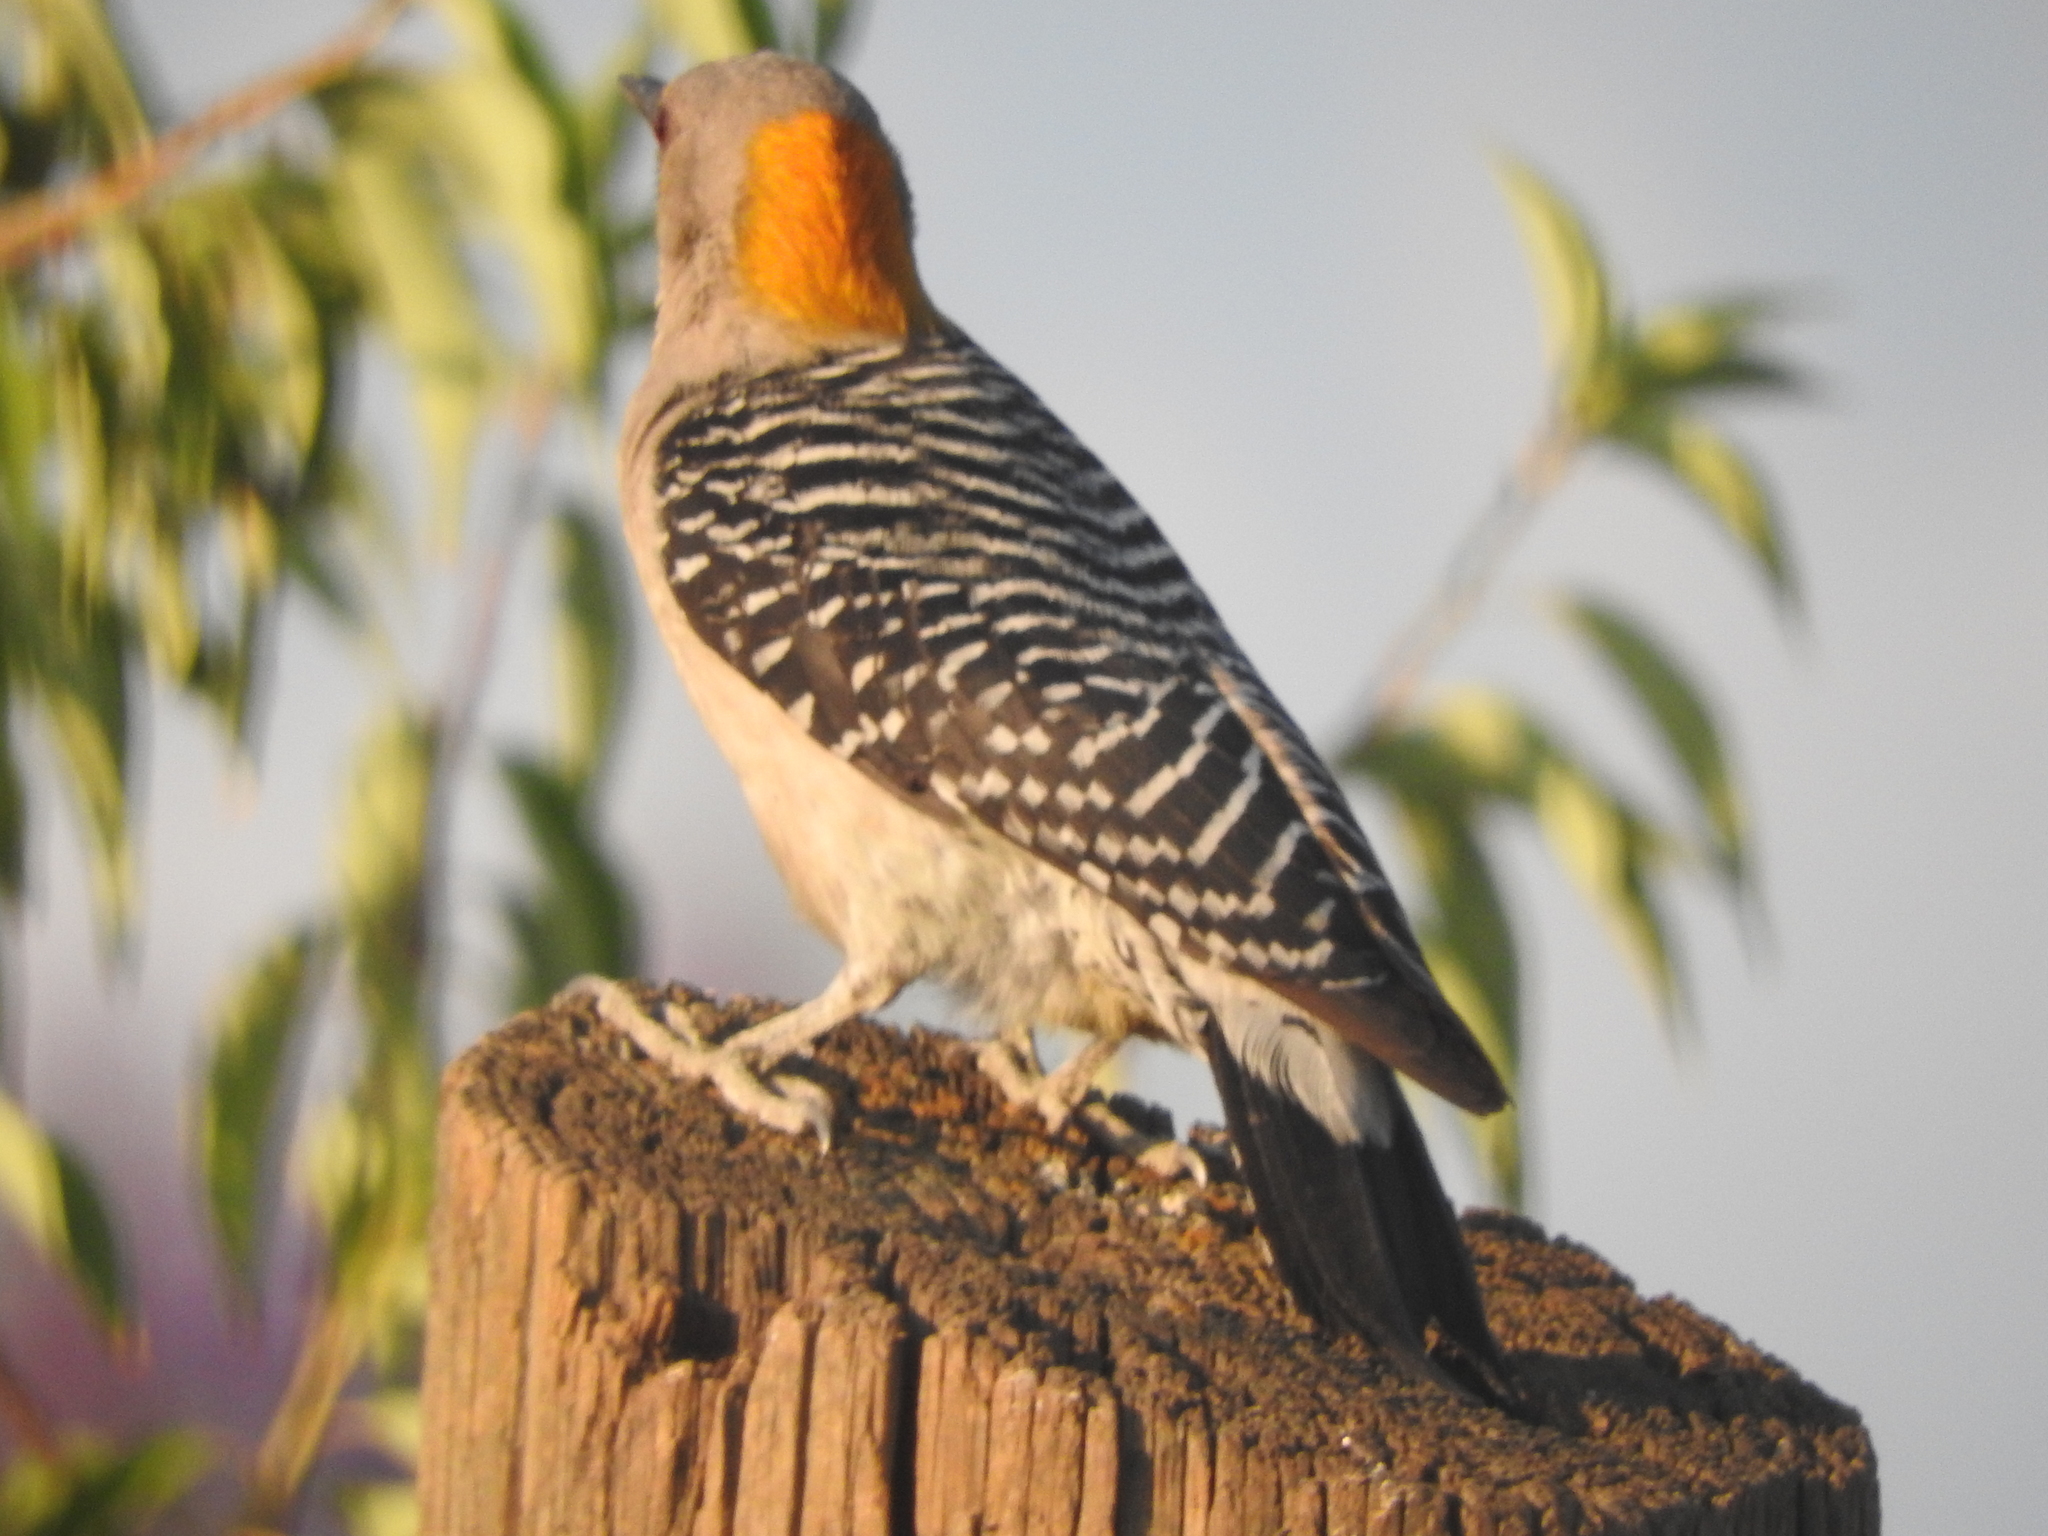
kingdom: Animalia
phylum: Chordata
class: Aves
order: Piciformes
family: Picidae
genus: Melanerpes
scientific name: Melanerpes aurifrons
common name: Golden-fronted woodpecker
